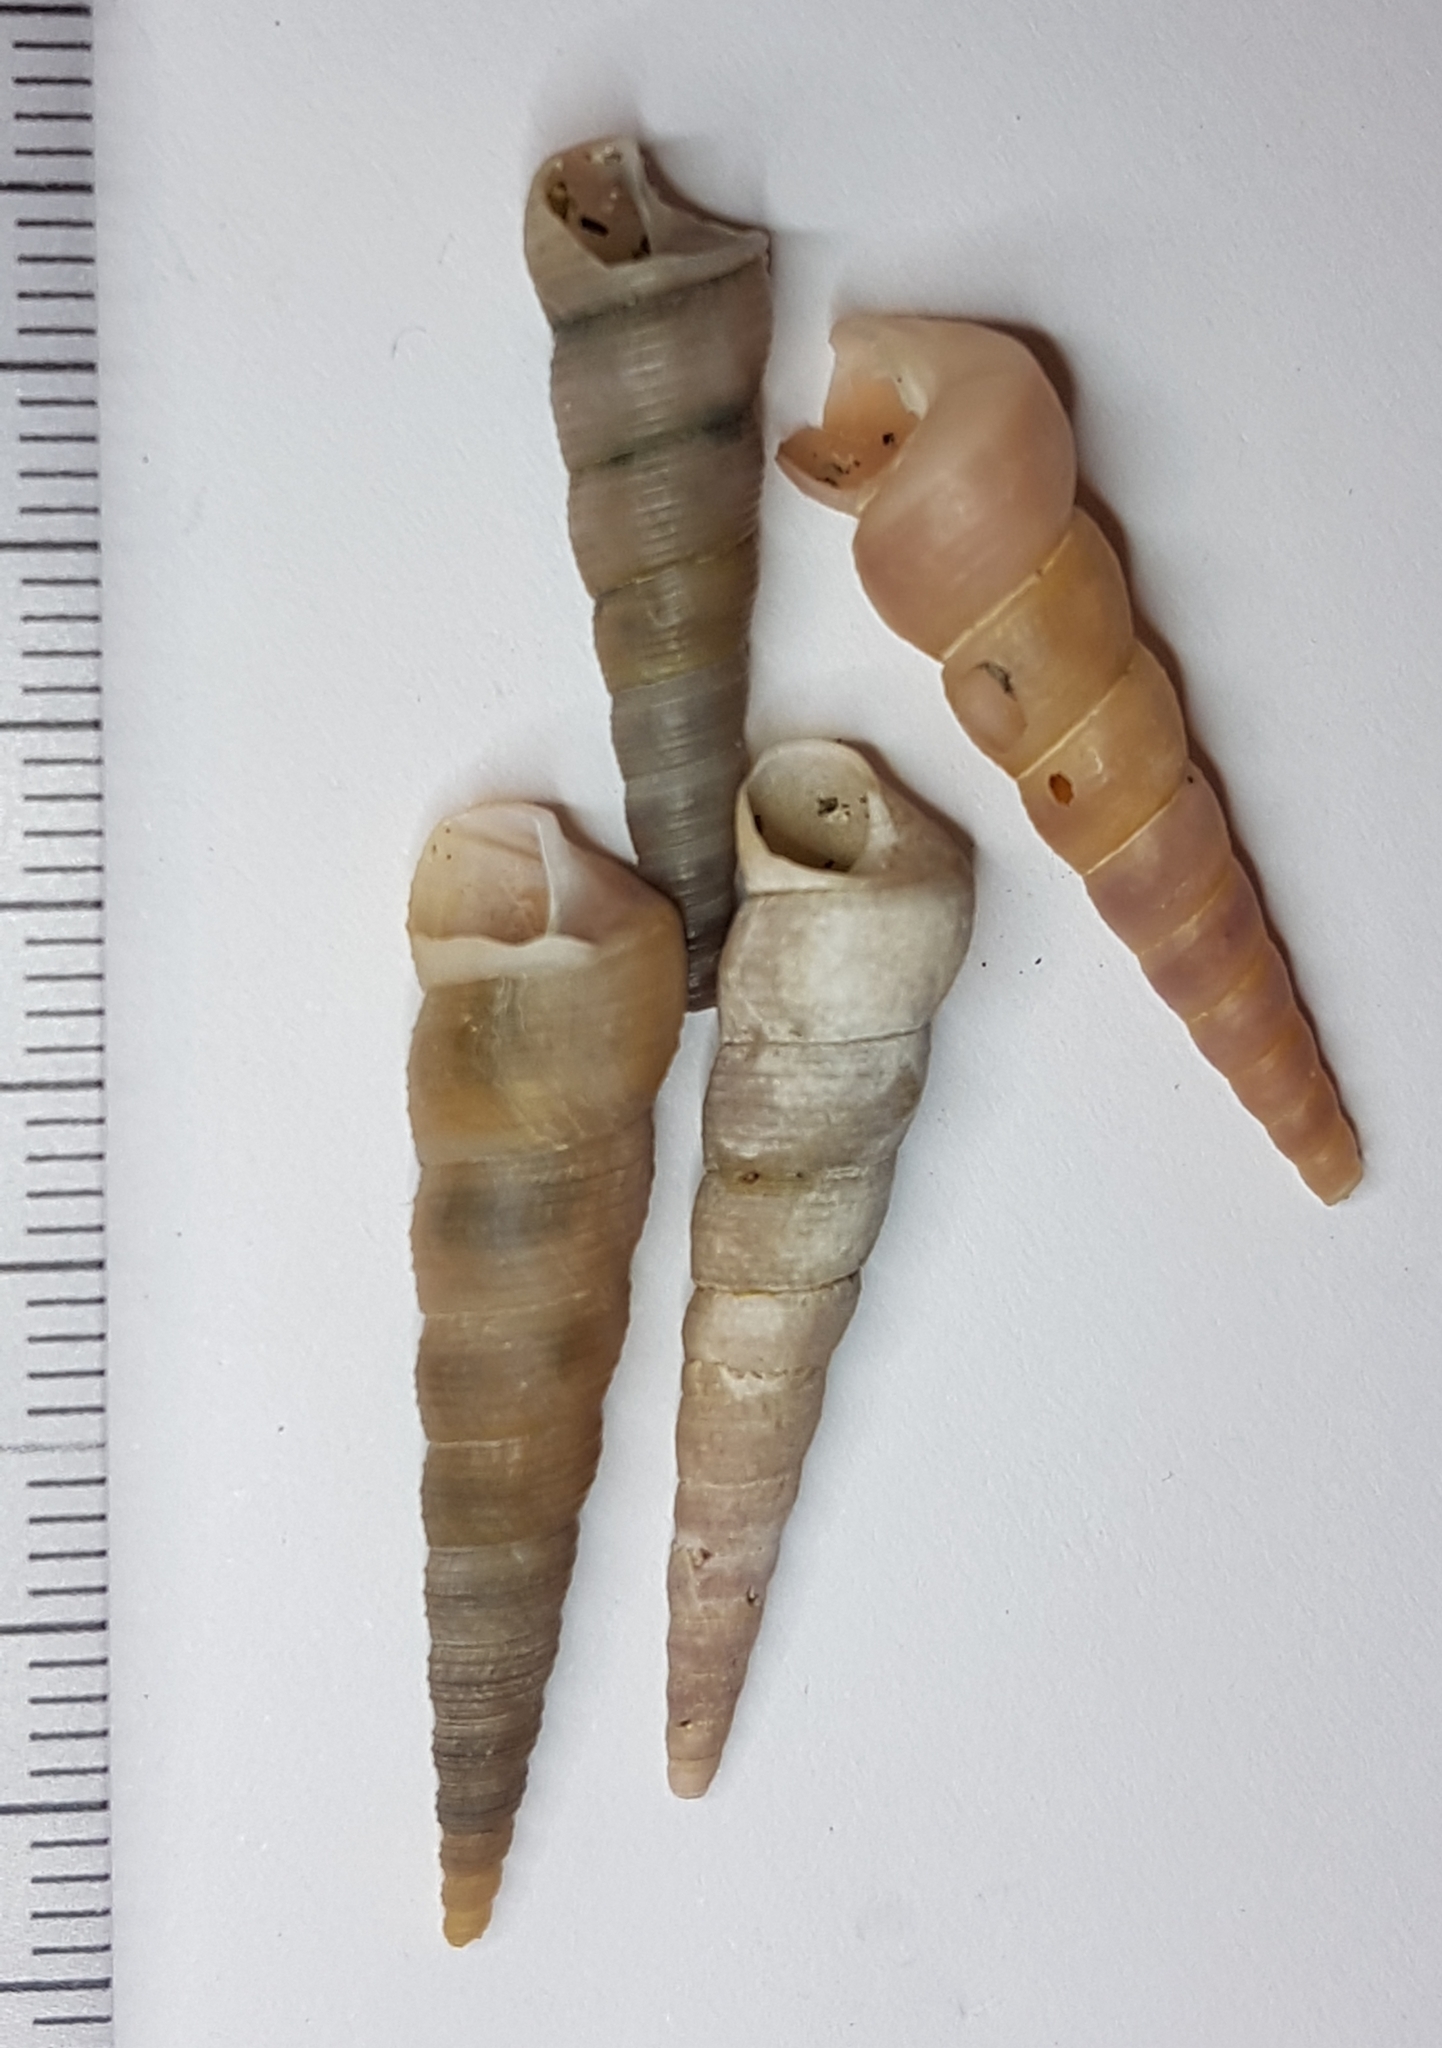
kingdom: Animalia
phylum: Mollusca
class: Gastropoda
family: Turritellidae
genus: Turritellinella
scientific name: Turritellinella tricarinata
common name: Auger shell
